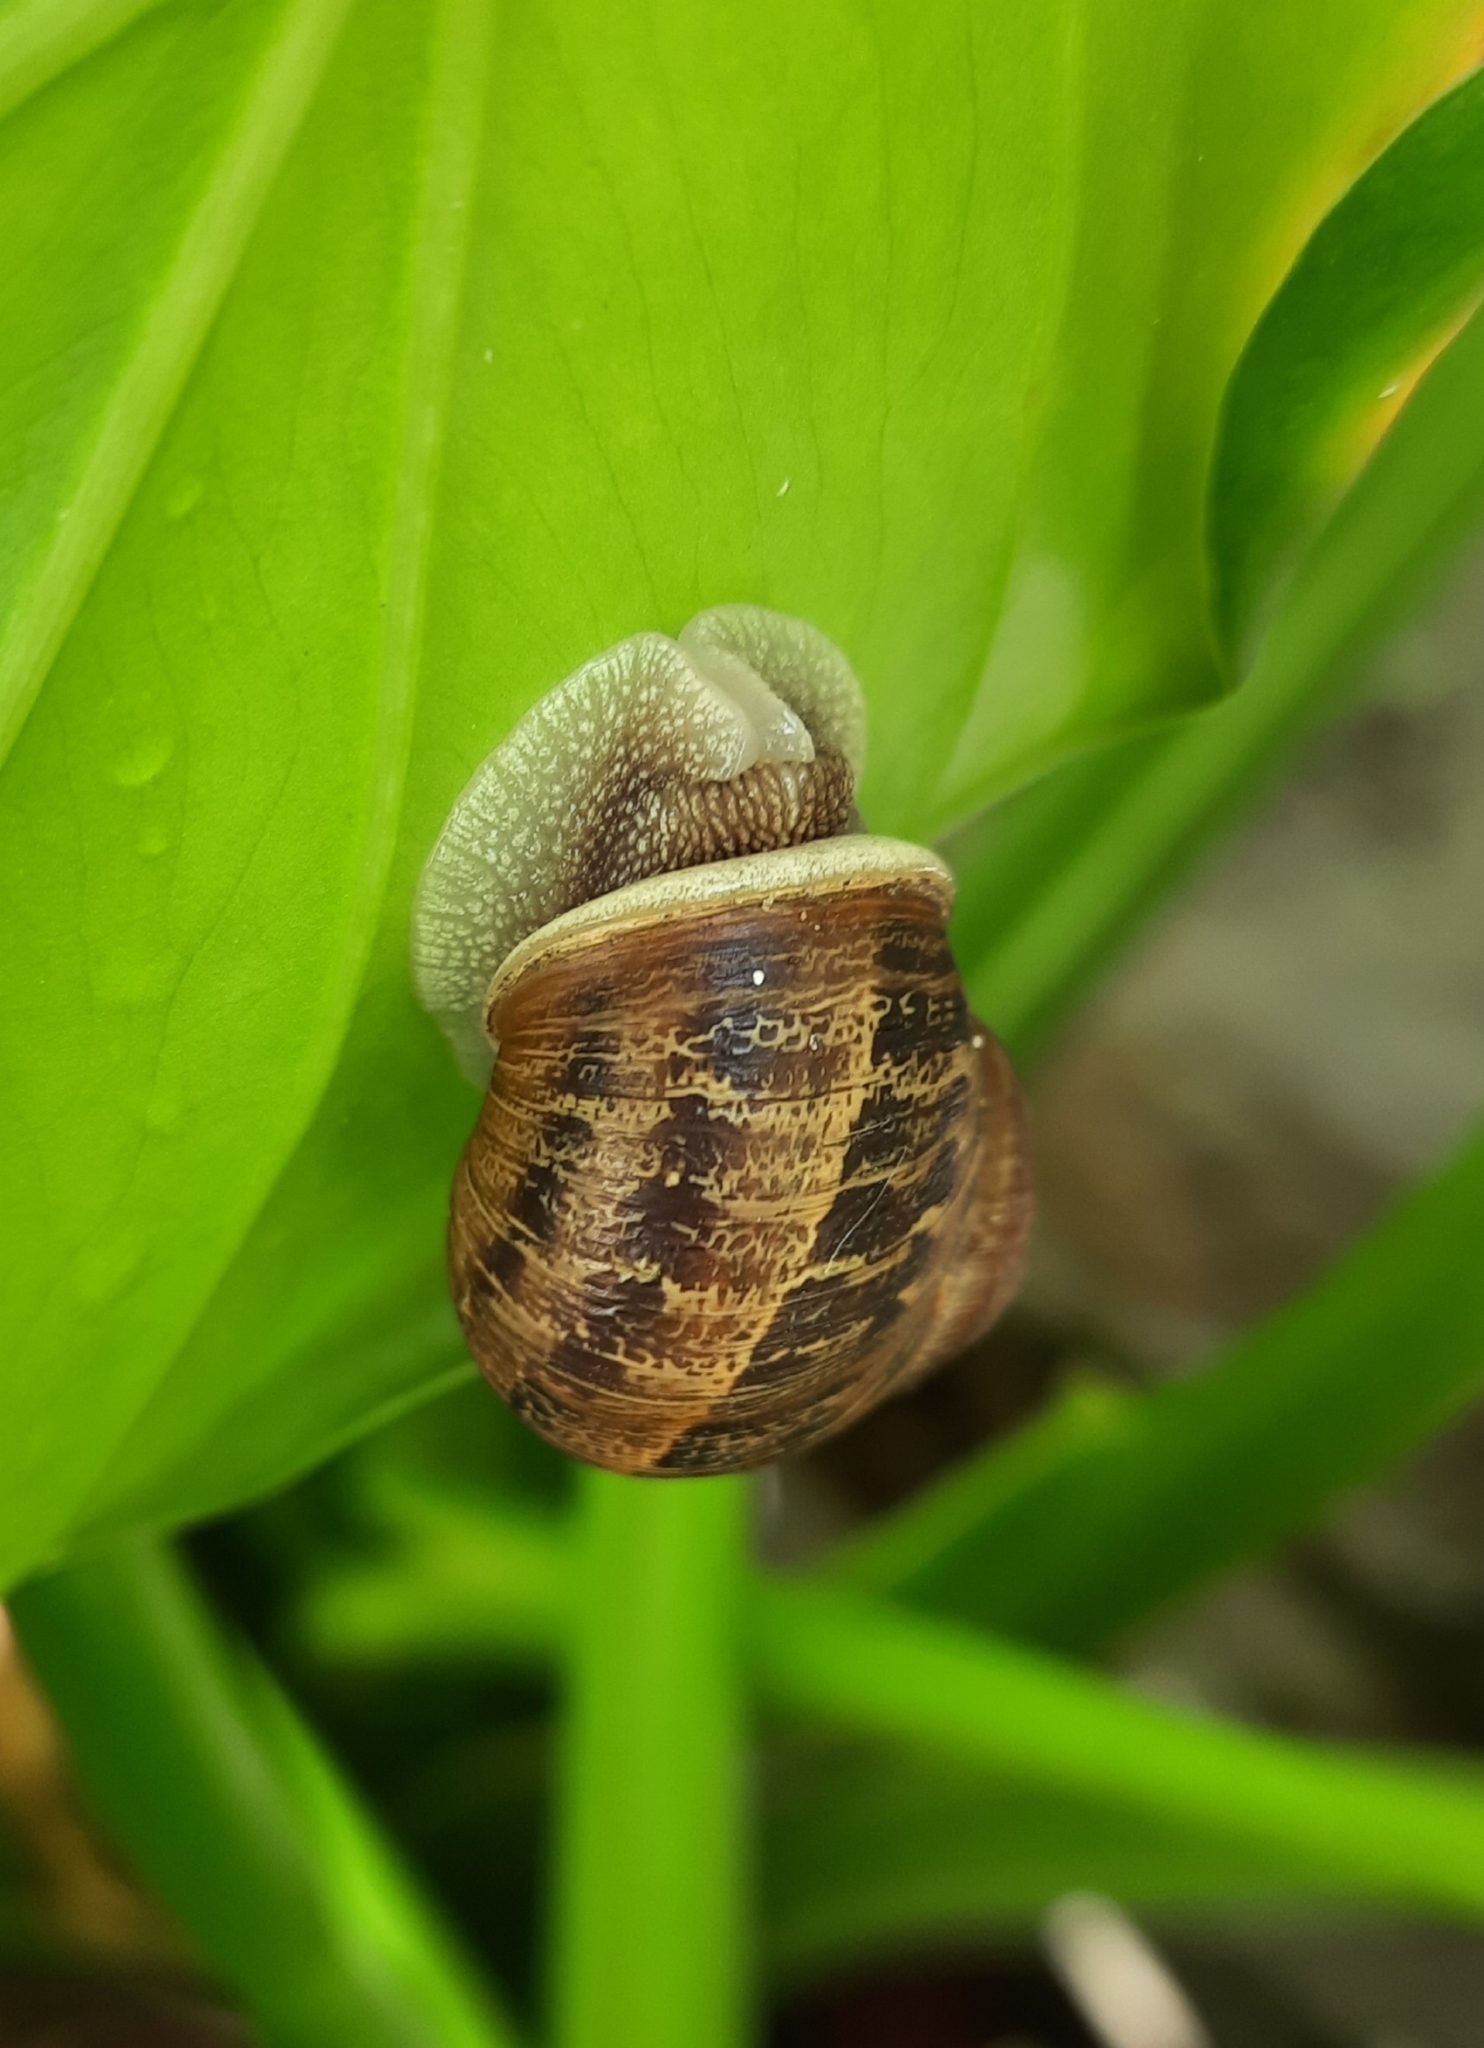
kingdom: Animalia
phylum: Mollusca
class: Gastropoda
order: Stylommatophora
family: Helicidae
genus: Cornu
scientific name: Cornu aspersum
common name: Brown garden snail
